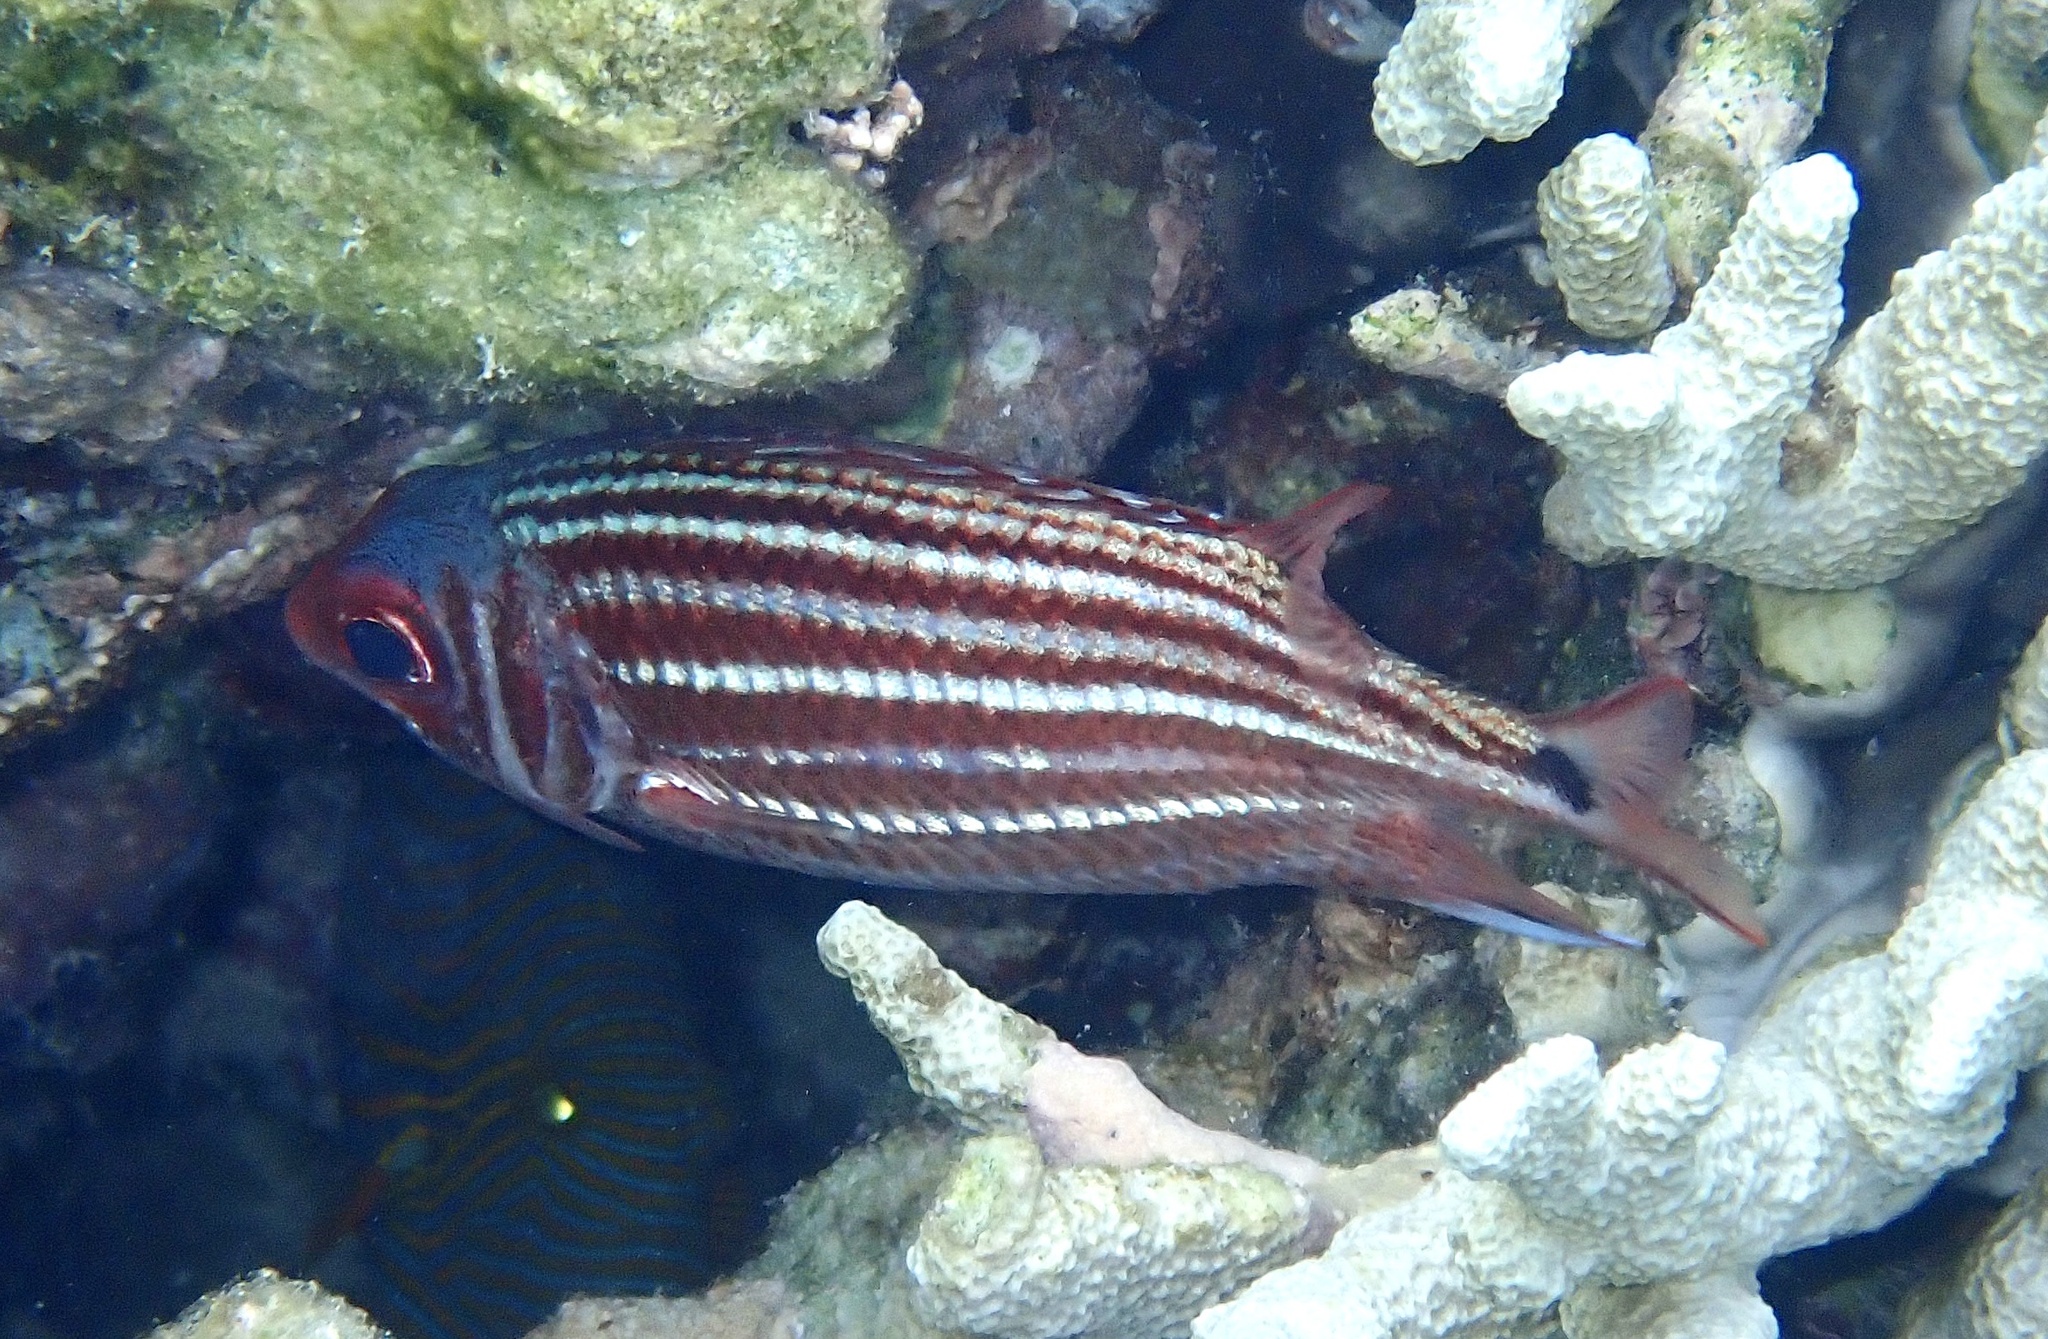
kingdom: Animalia
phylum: Chordata
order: Beryciformes
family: Holocentridae
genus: Sargocentron
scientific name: Sargocentron cornutum
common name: Horned squirrelfish
